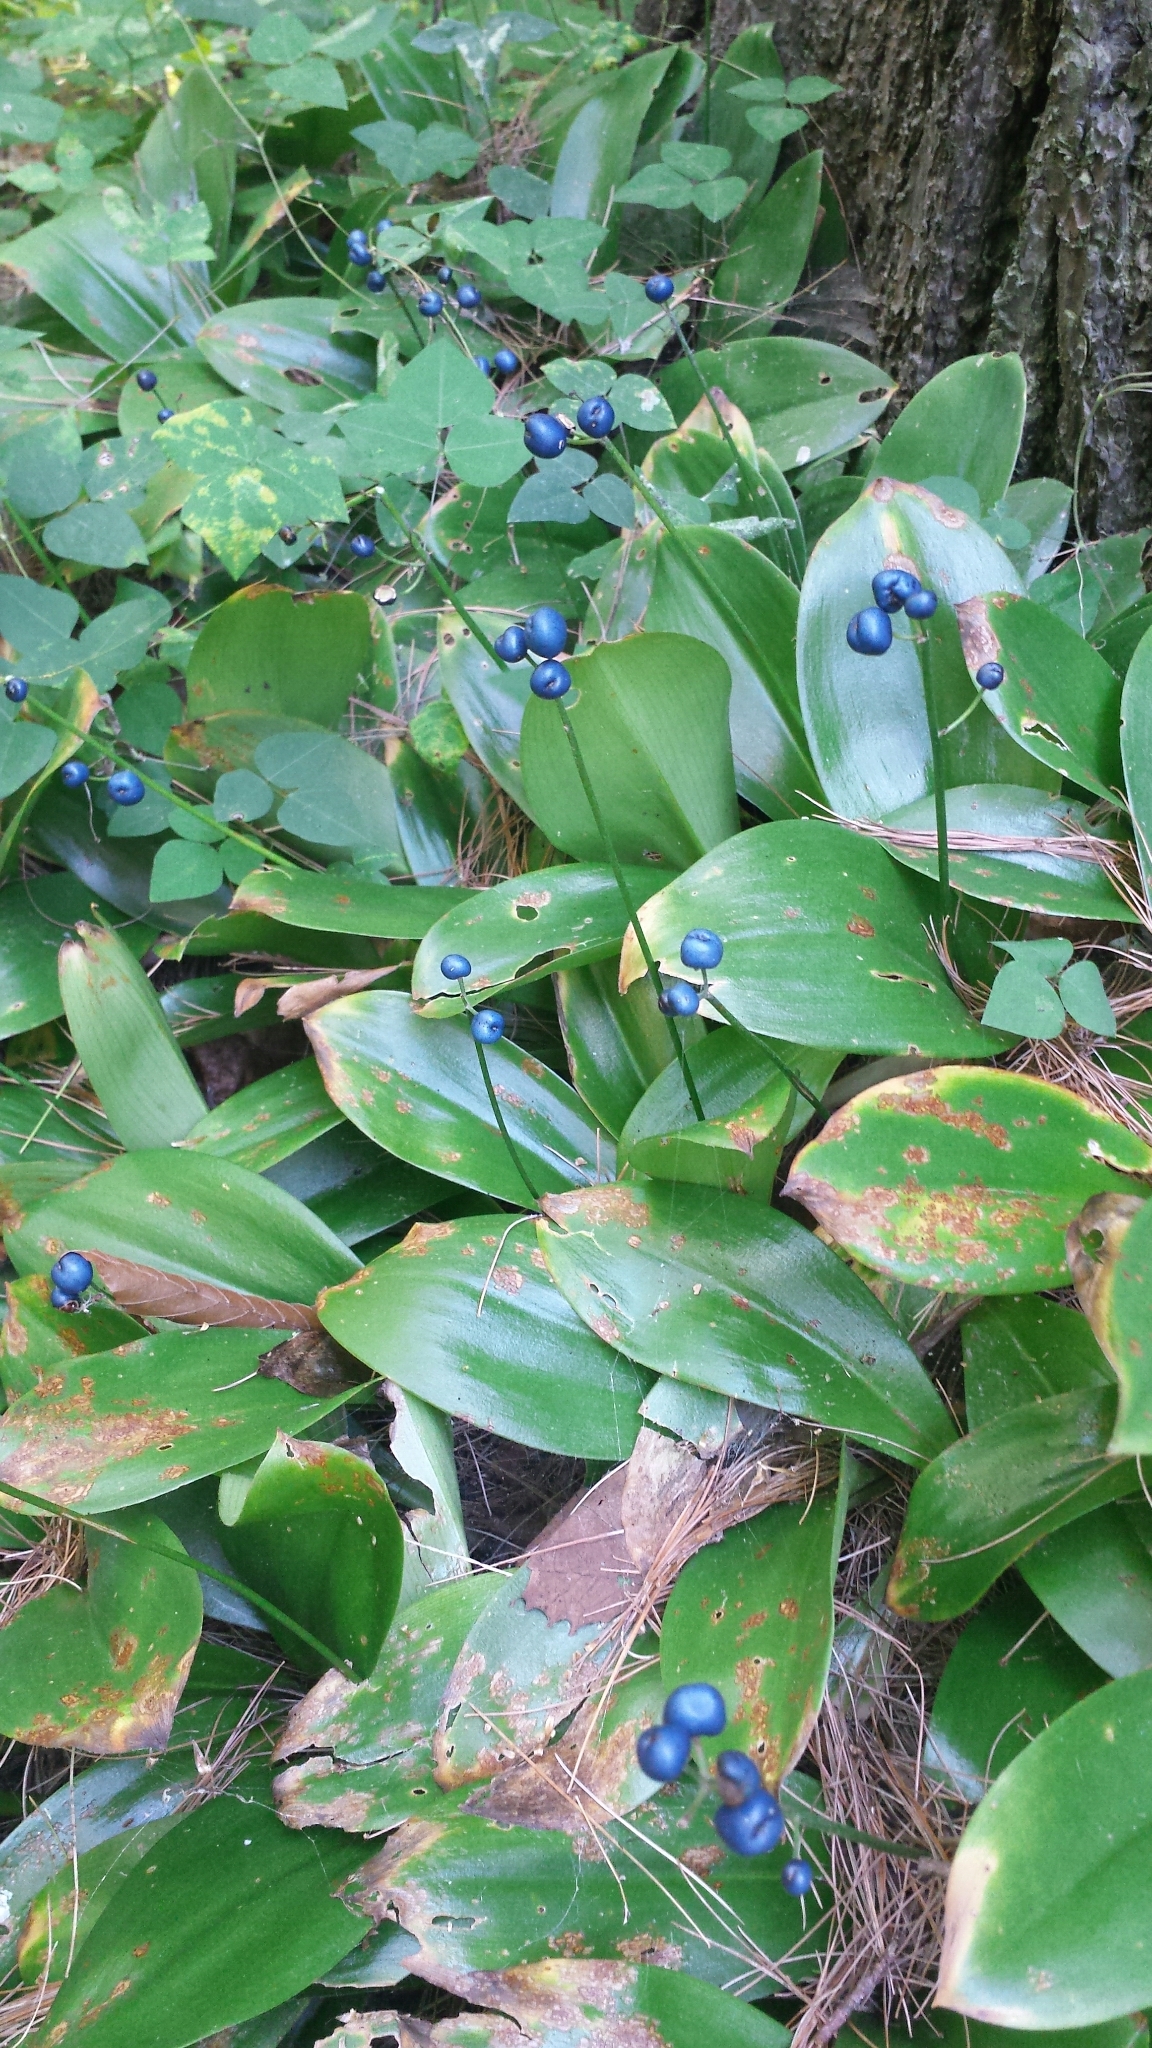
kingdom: Plantae
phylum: Tracheophyta
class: Liliopsida
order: Liliales
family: Liliaceae
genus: Clintonia
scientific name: Clintonia borealis
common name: Yellow clintonia
